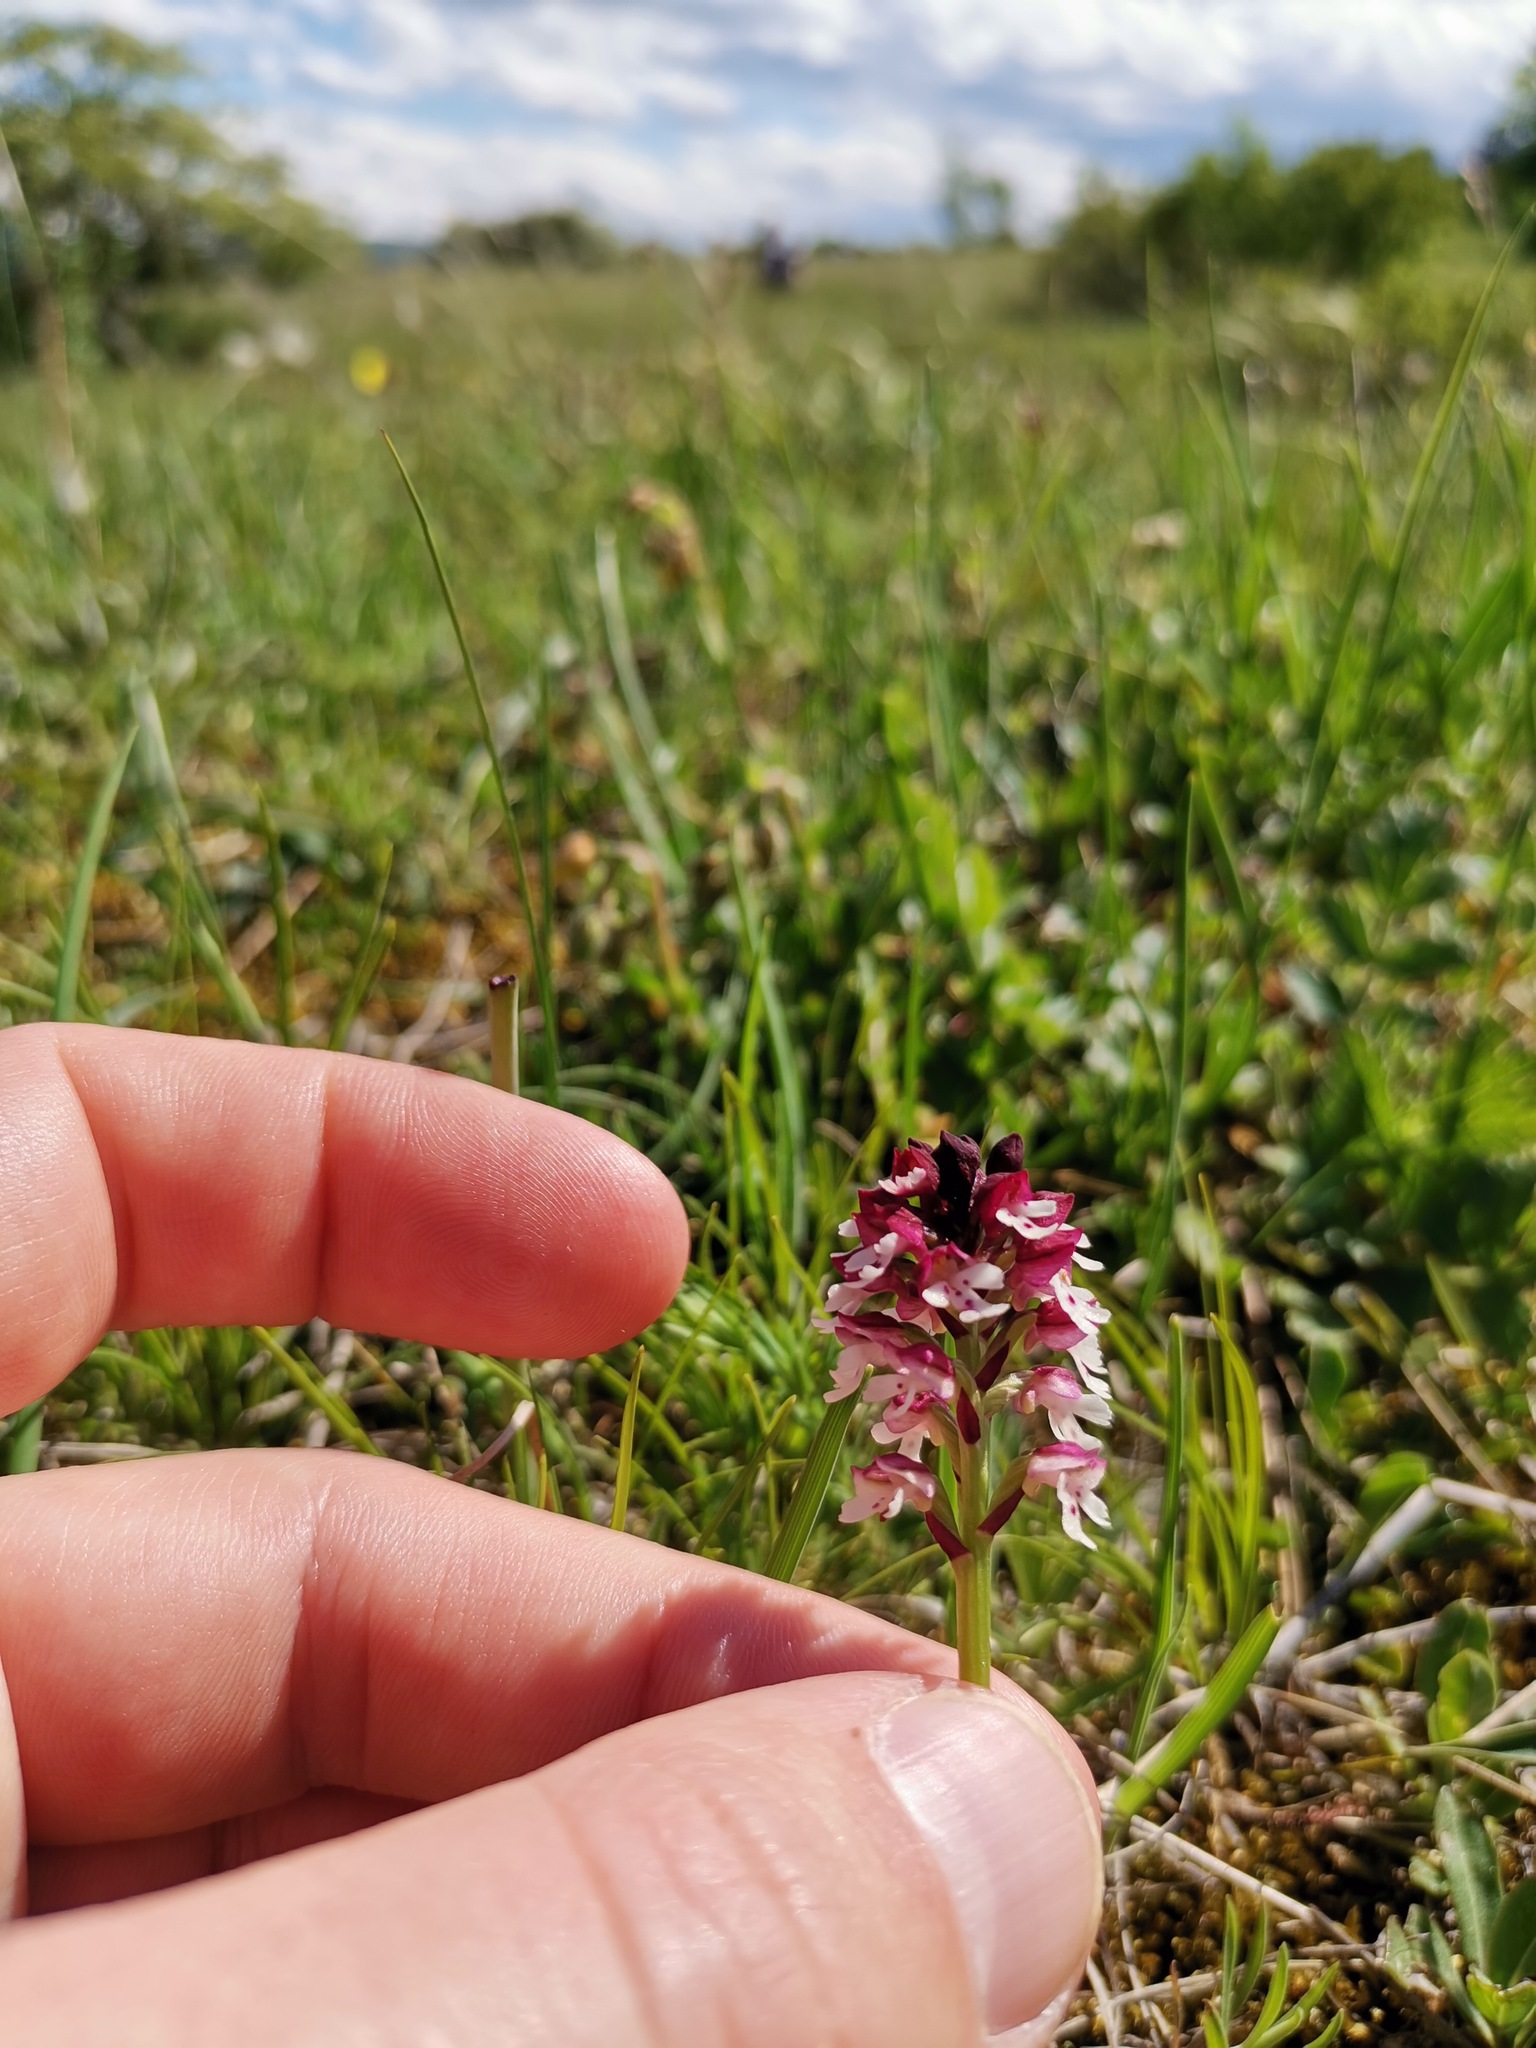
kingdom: Plantae
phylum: Tracheophyta
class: Liliopsida
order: Asparagales
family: Orchidaceae
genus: Neotinea
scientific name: Neotinea ustulata
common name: Burnt orchid
